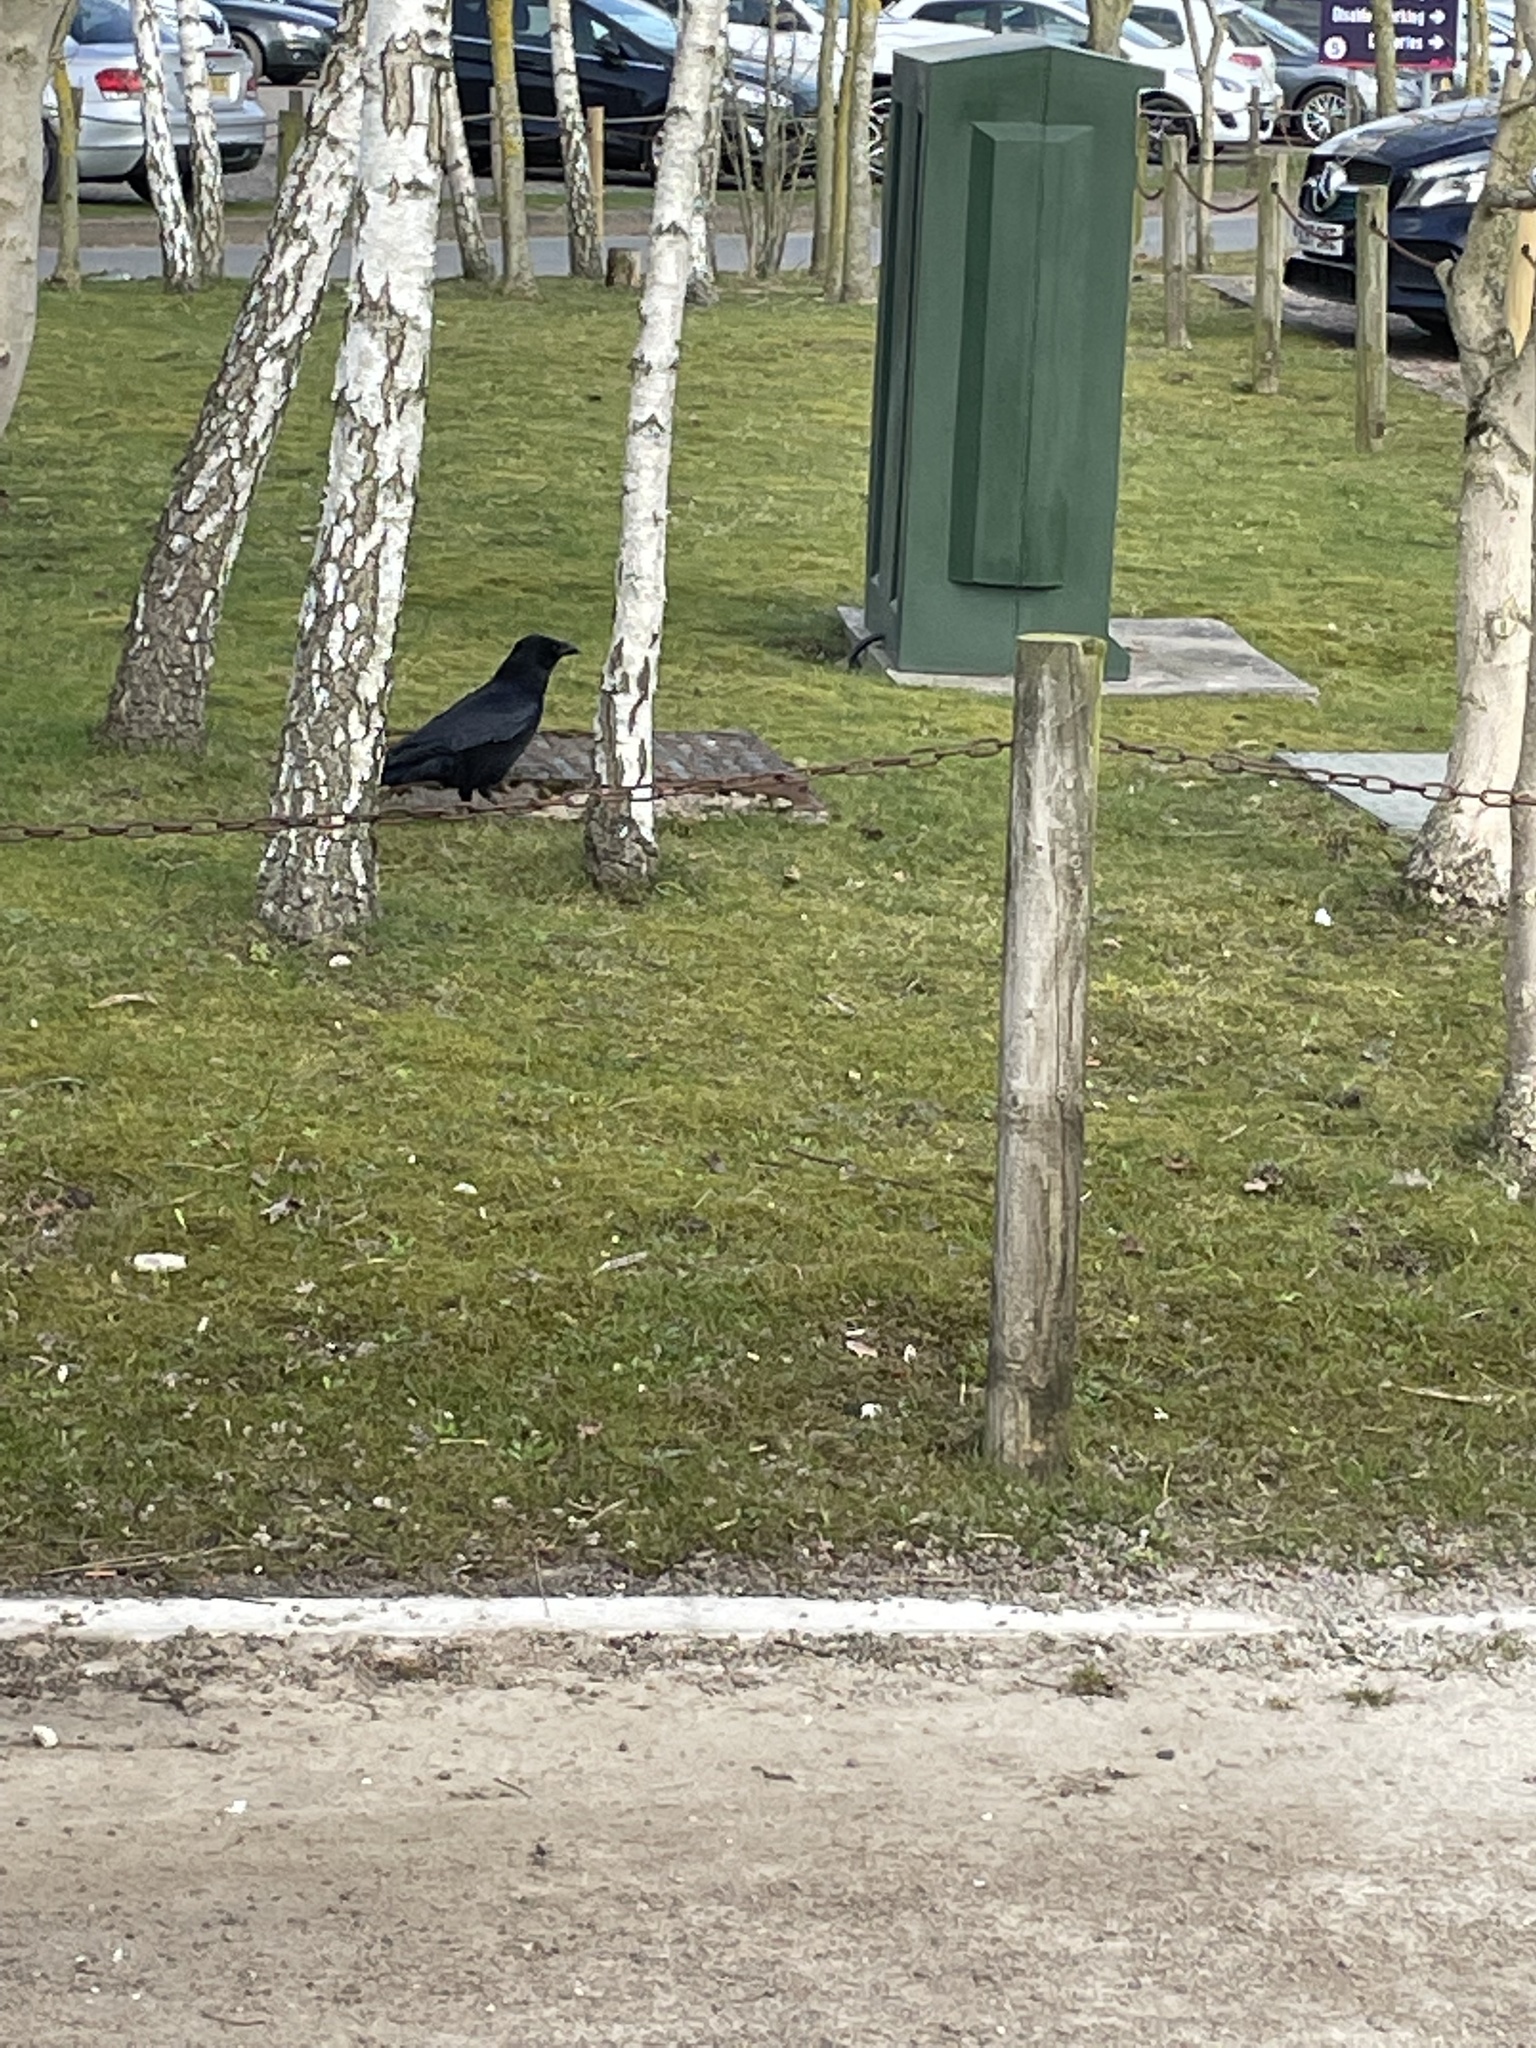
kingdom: Animalia
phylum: Chordata
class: Aves
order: Passeriformes
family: Corvidae
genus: Corvus
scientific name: Corvus corone
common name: Carrion crow
